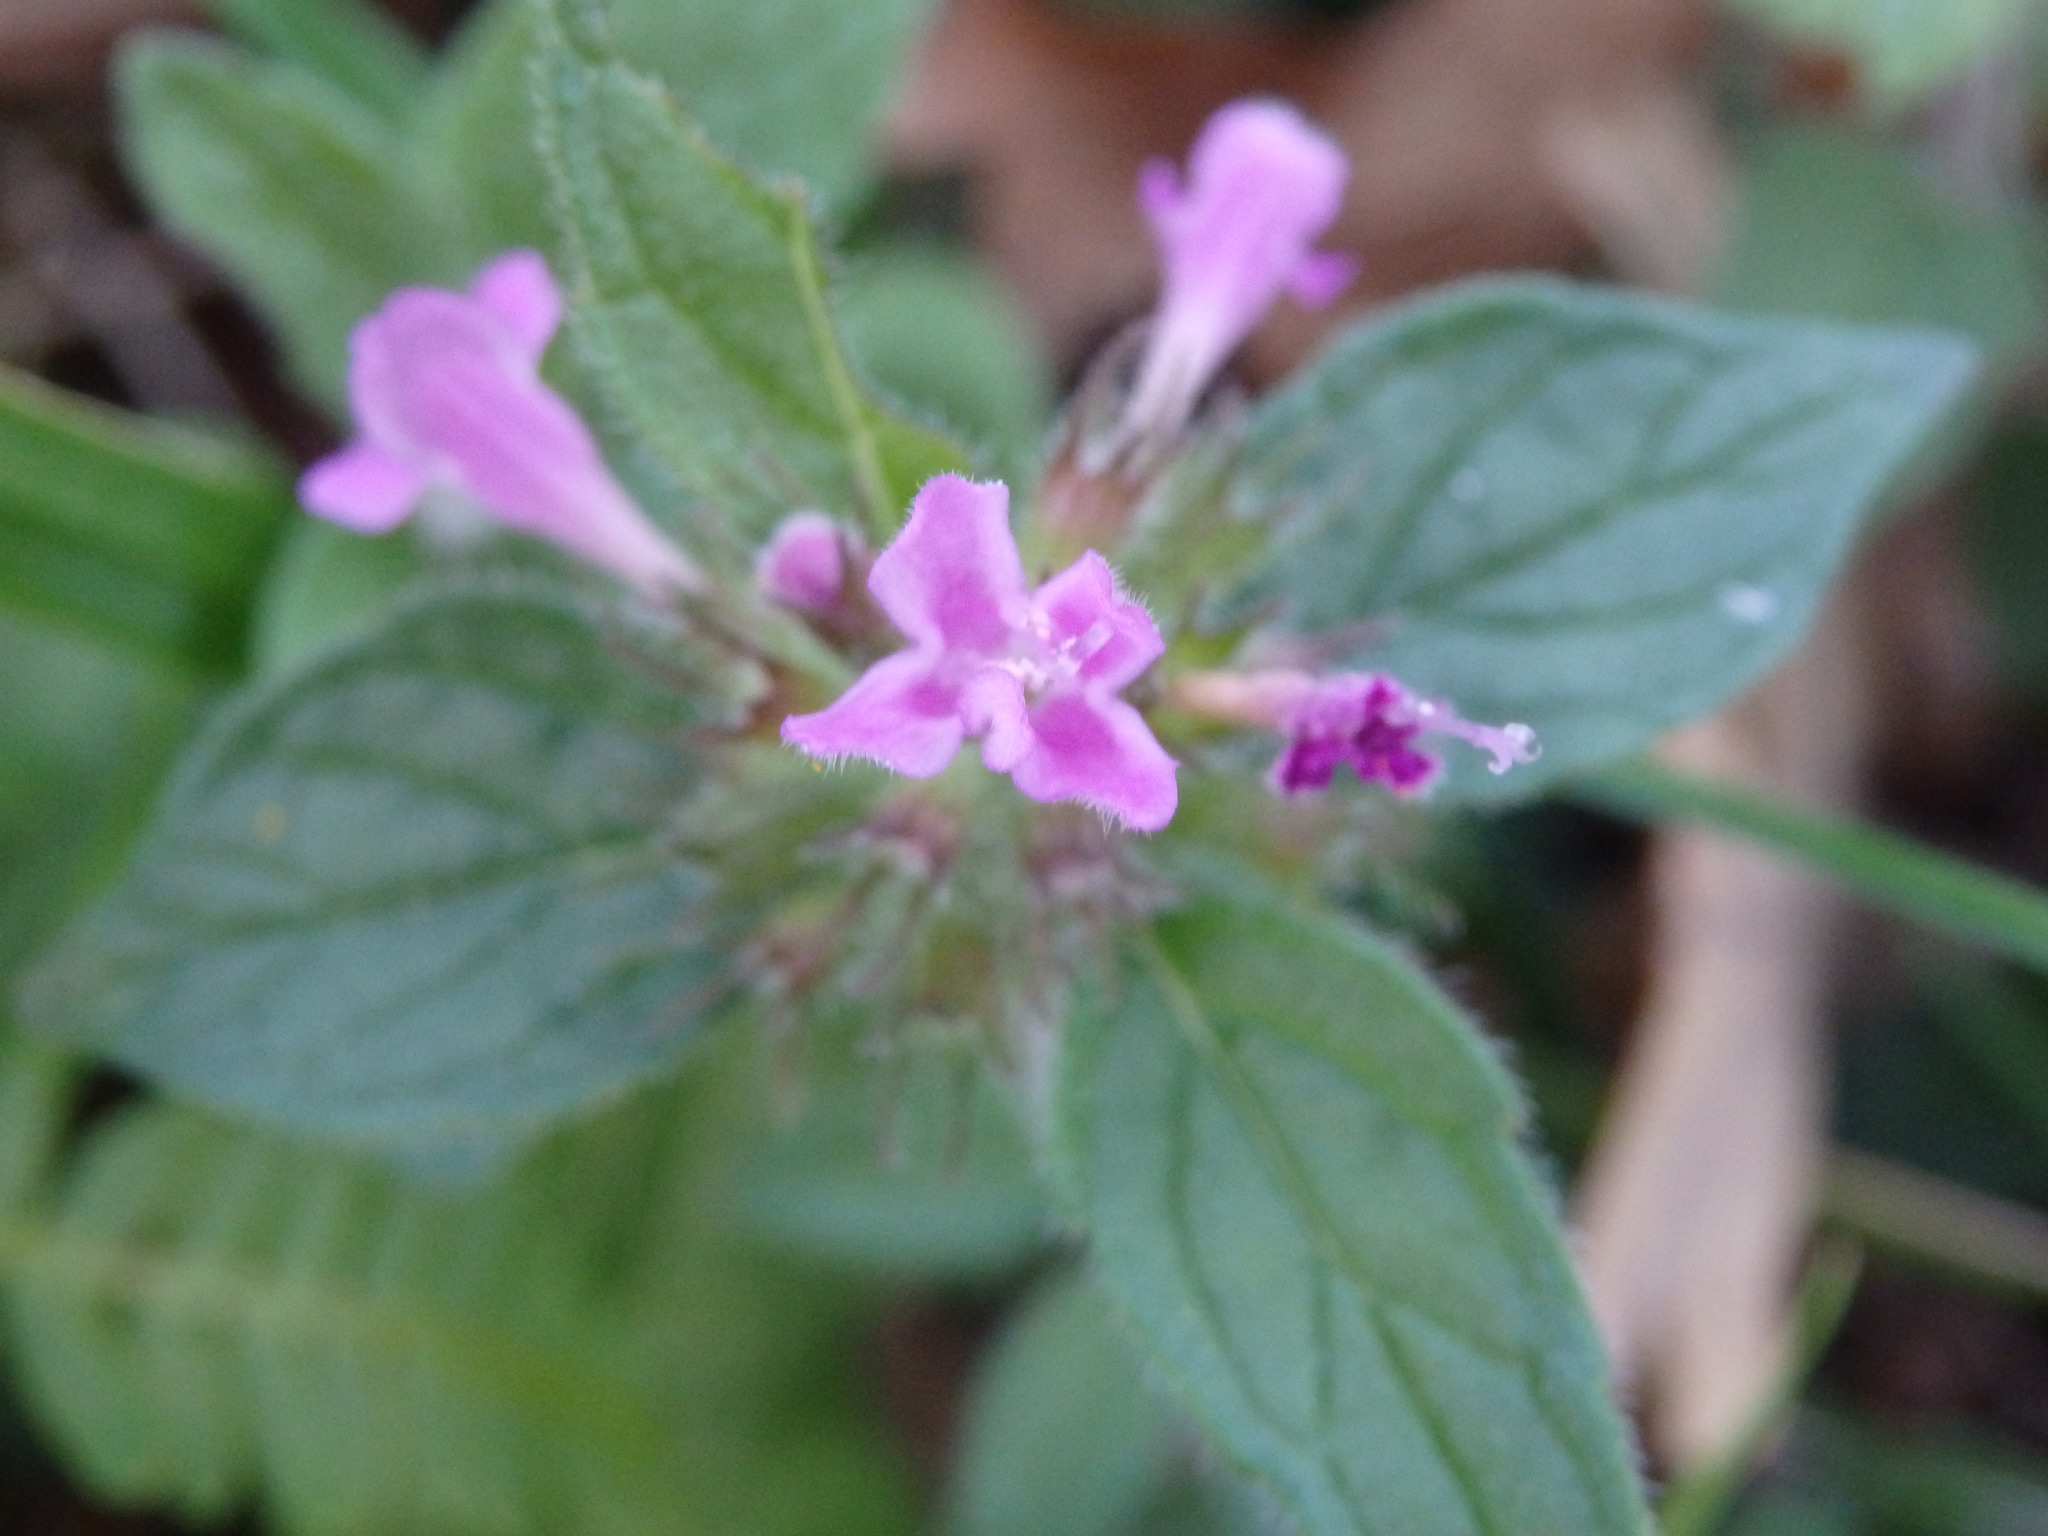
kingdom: Plantae
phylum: Tracheophyta
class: Magnoliopsida
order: Lamiales
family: Lamiaceae
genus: Clinopodium
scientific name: Clinopodium vulgare
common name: Wild basil
